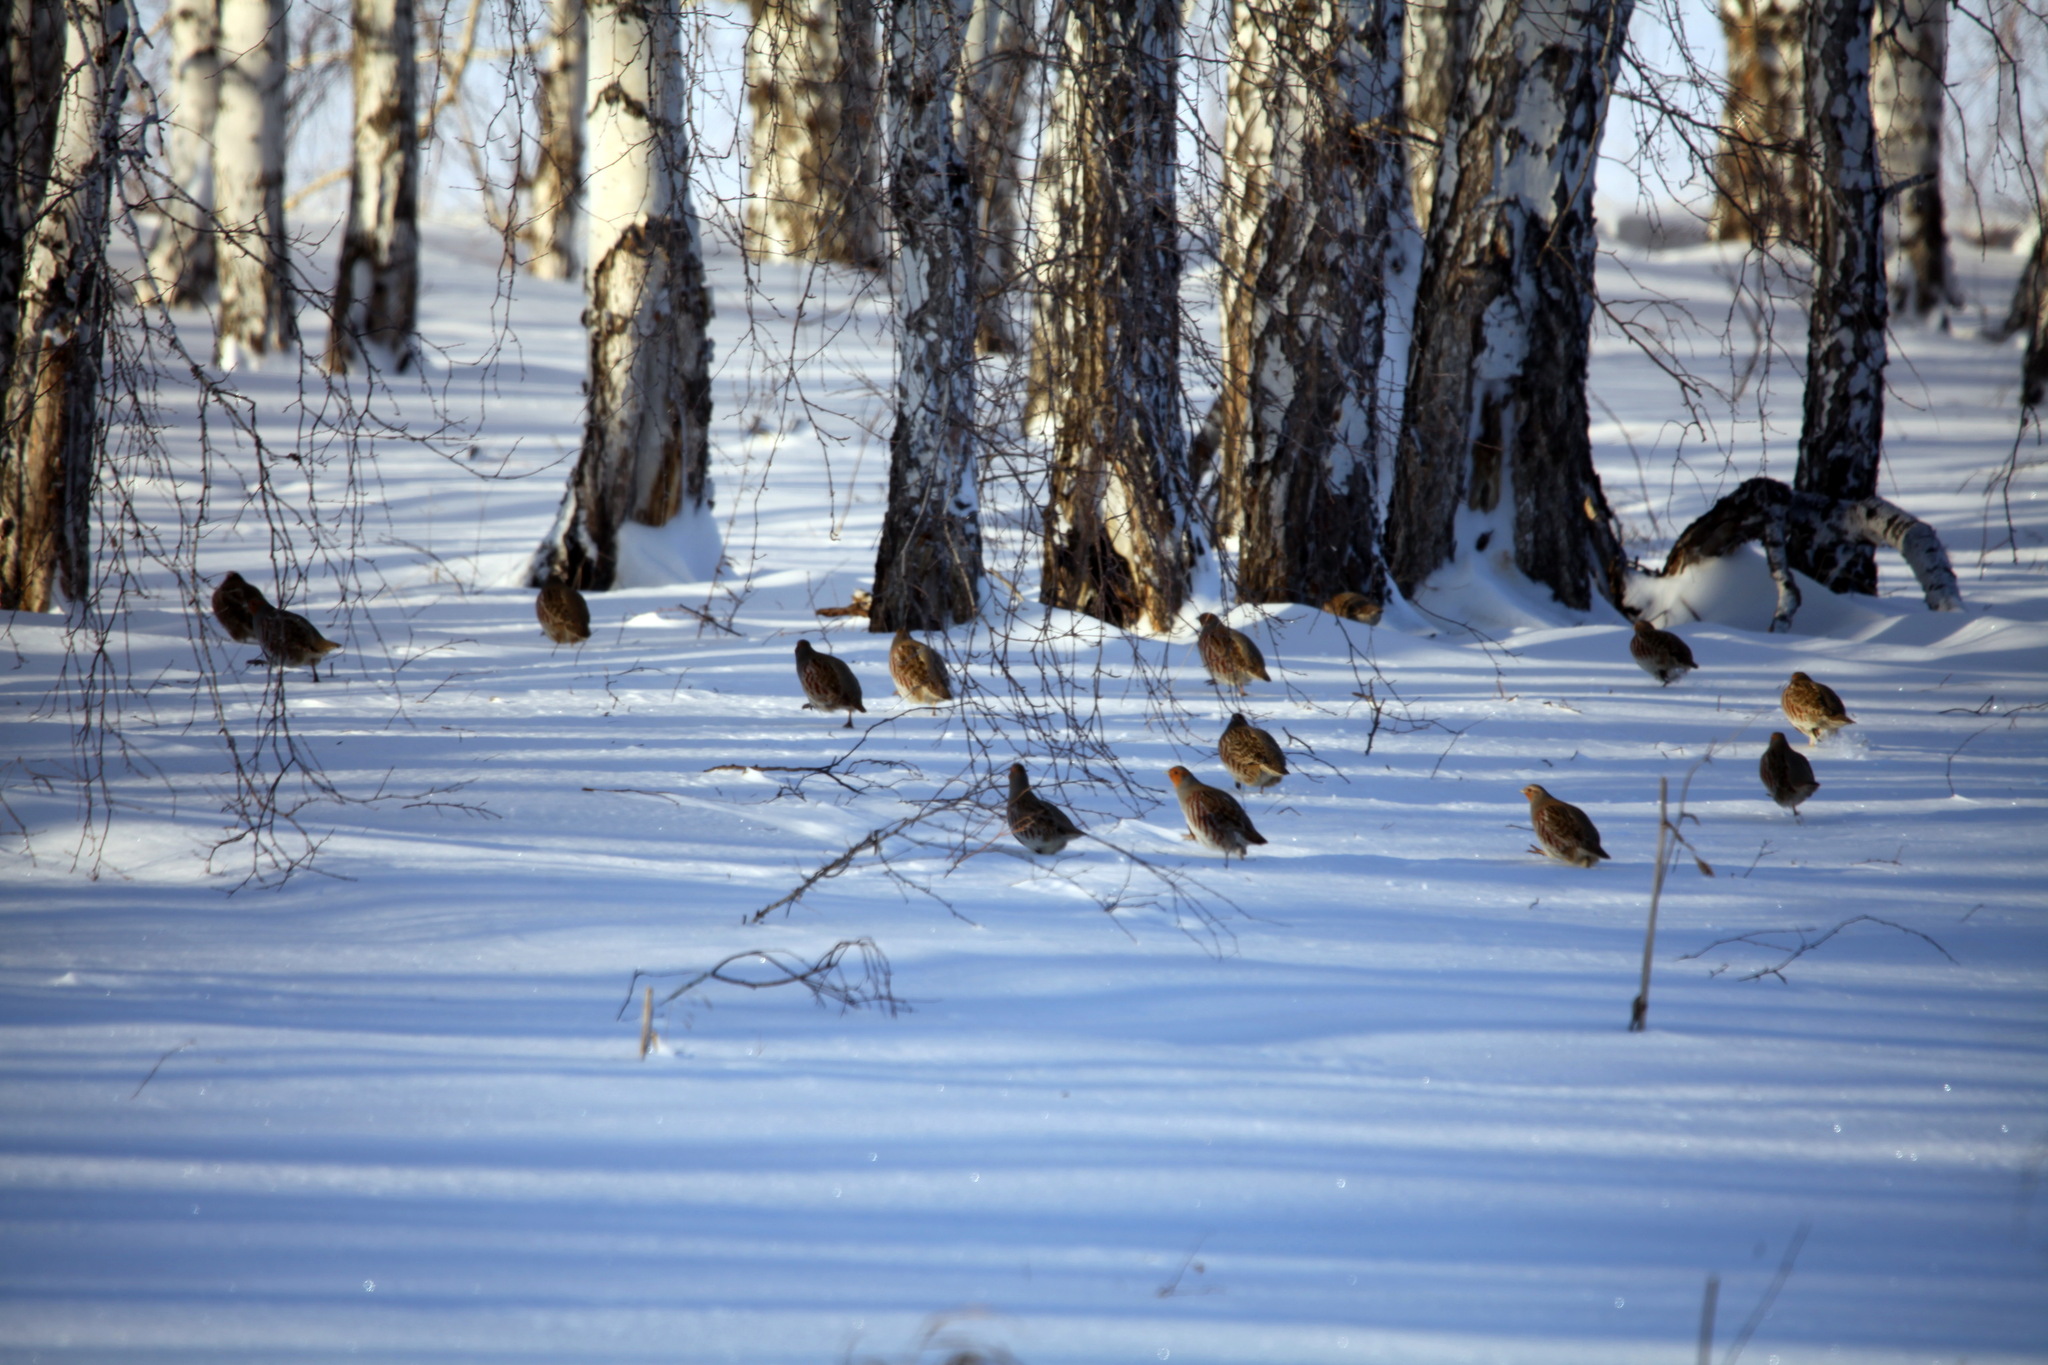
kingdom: Animalia
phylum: Chordata
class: Aves
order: Galliformes
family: Phasianidae
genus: Perdix
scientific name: Perdix perdix
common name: Grey partridge
